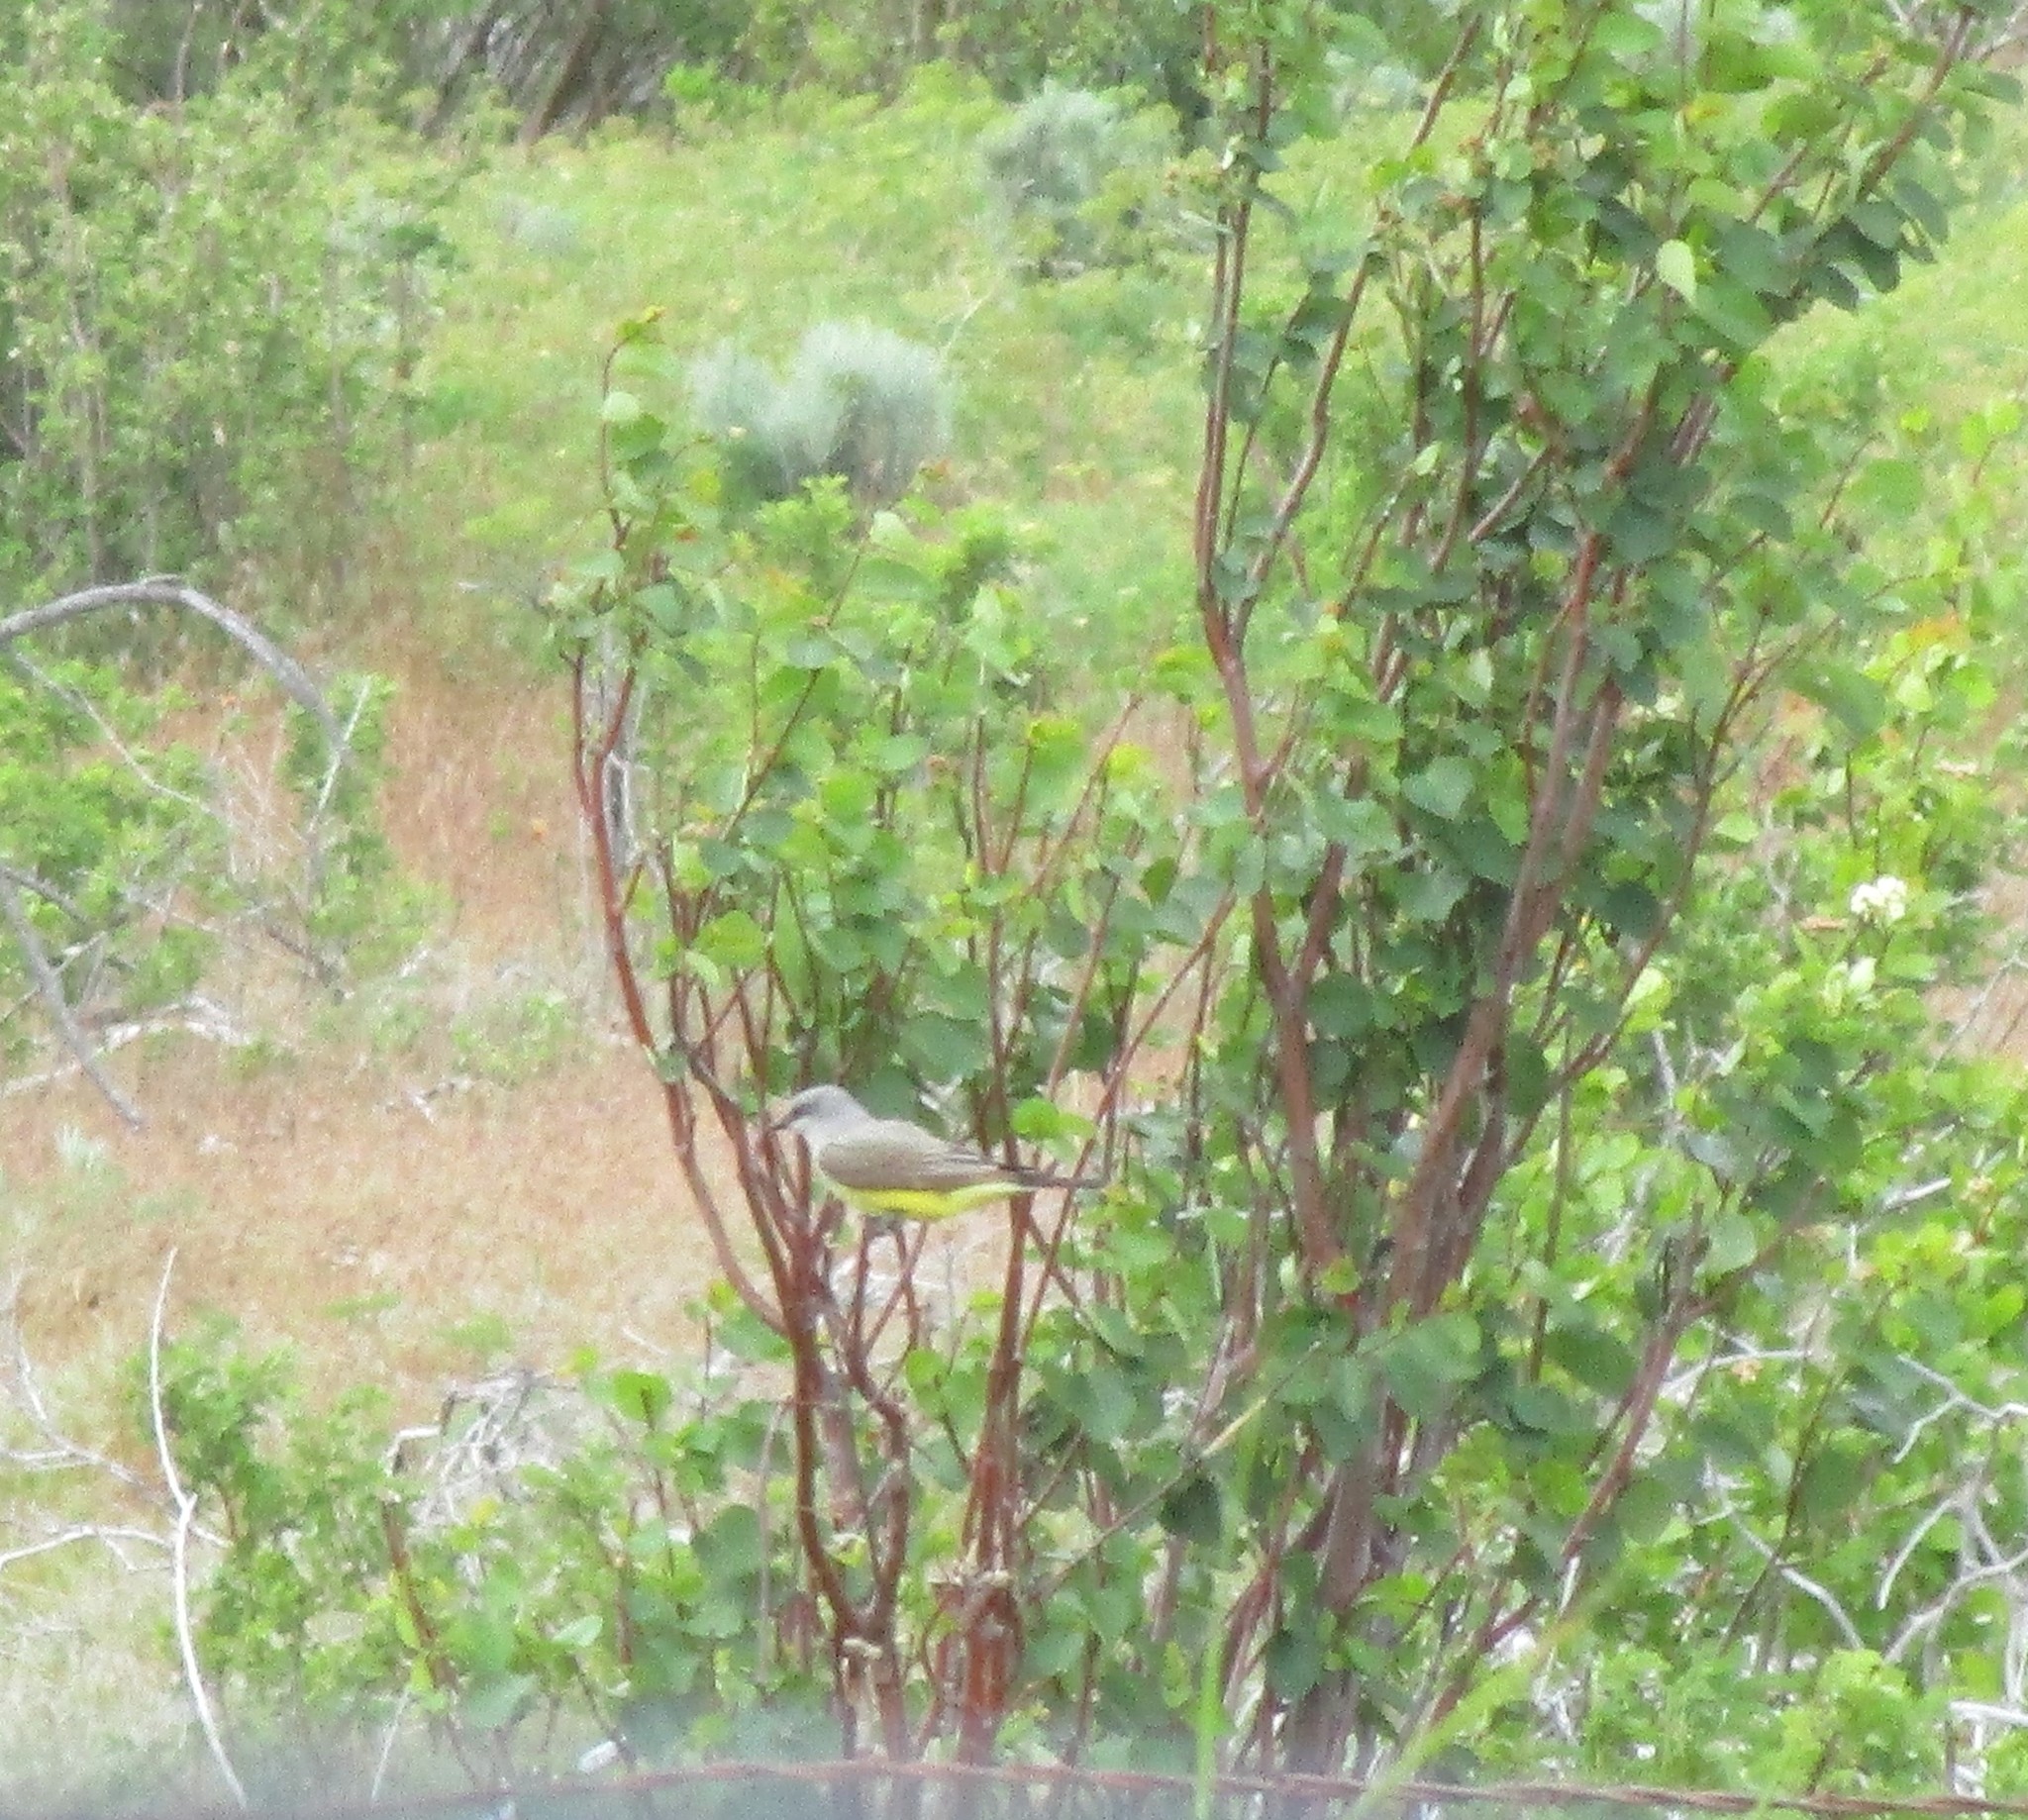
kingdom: Animalia
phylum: Chordata
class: Aves
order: Passeriformes
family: Tyrannidae
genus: Tyrannus
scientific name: Tyrannus verticalis
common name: Western kingbird
